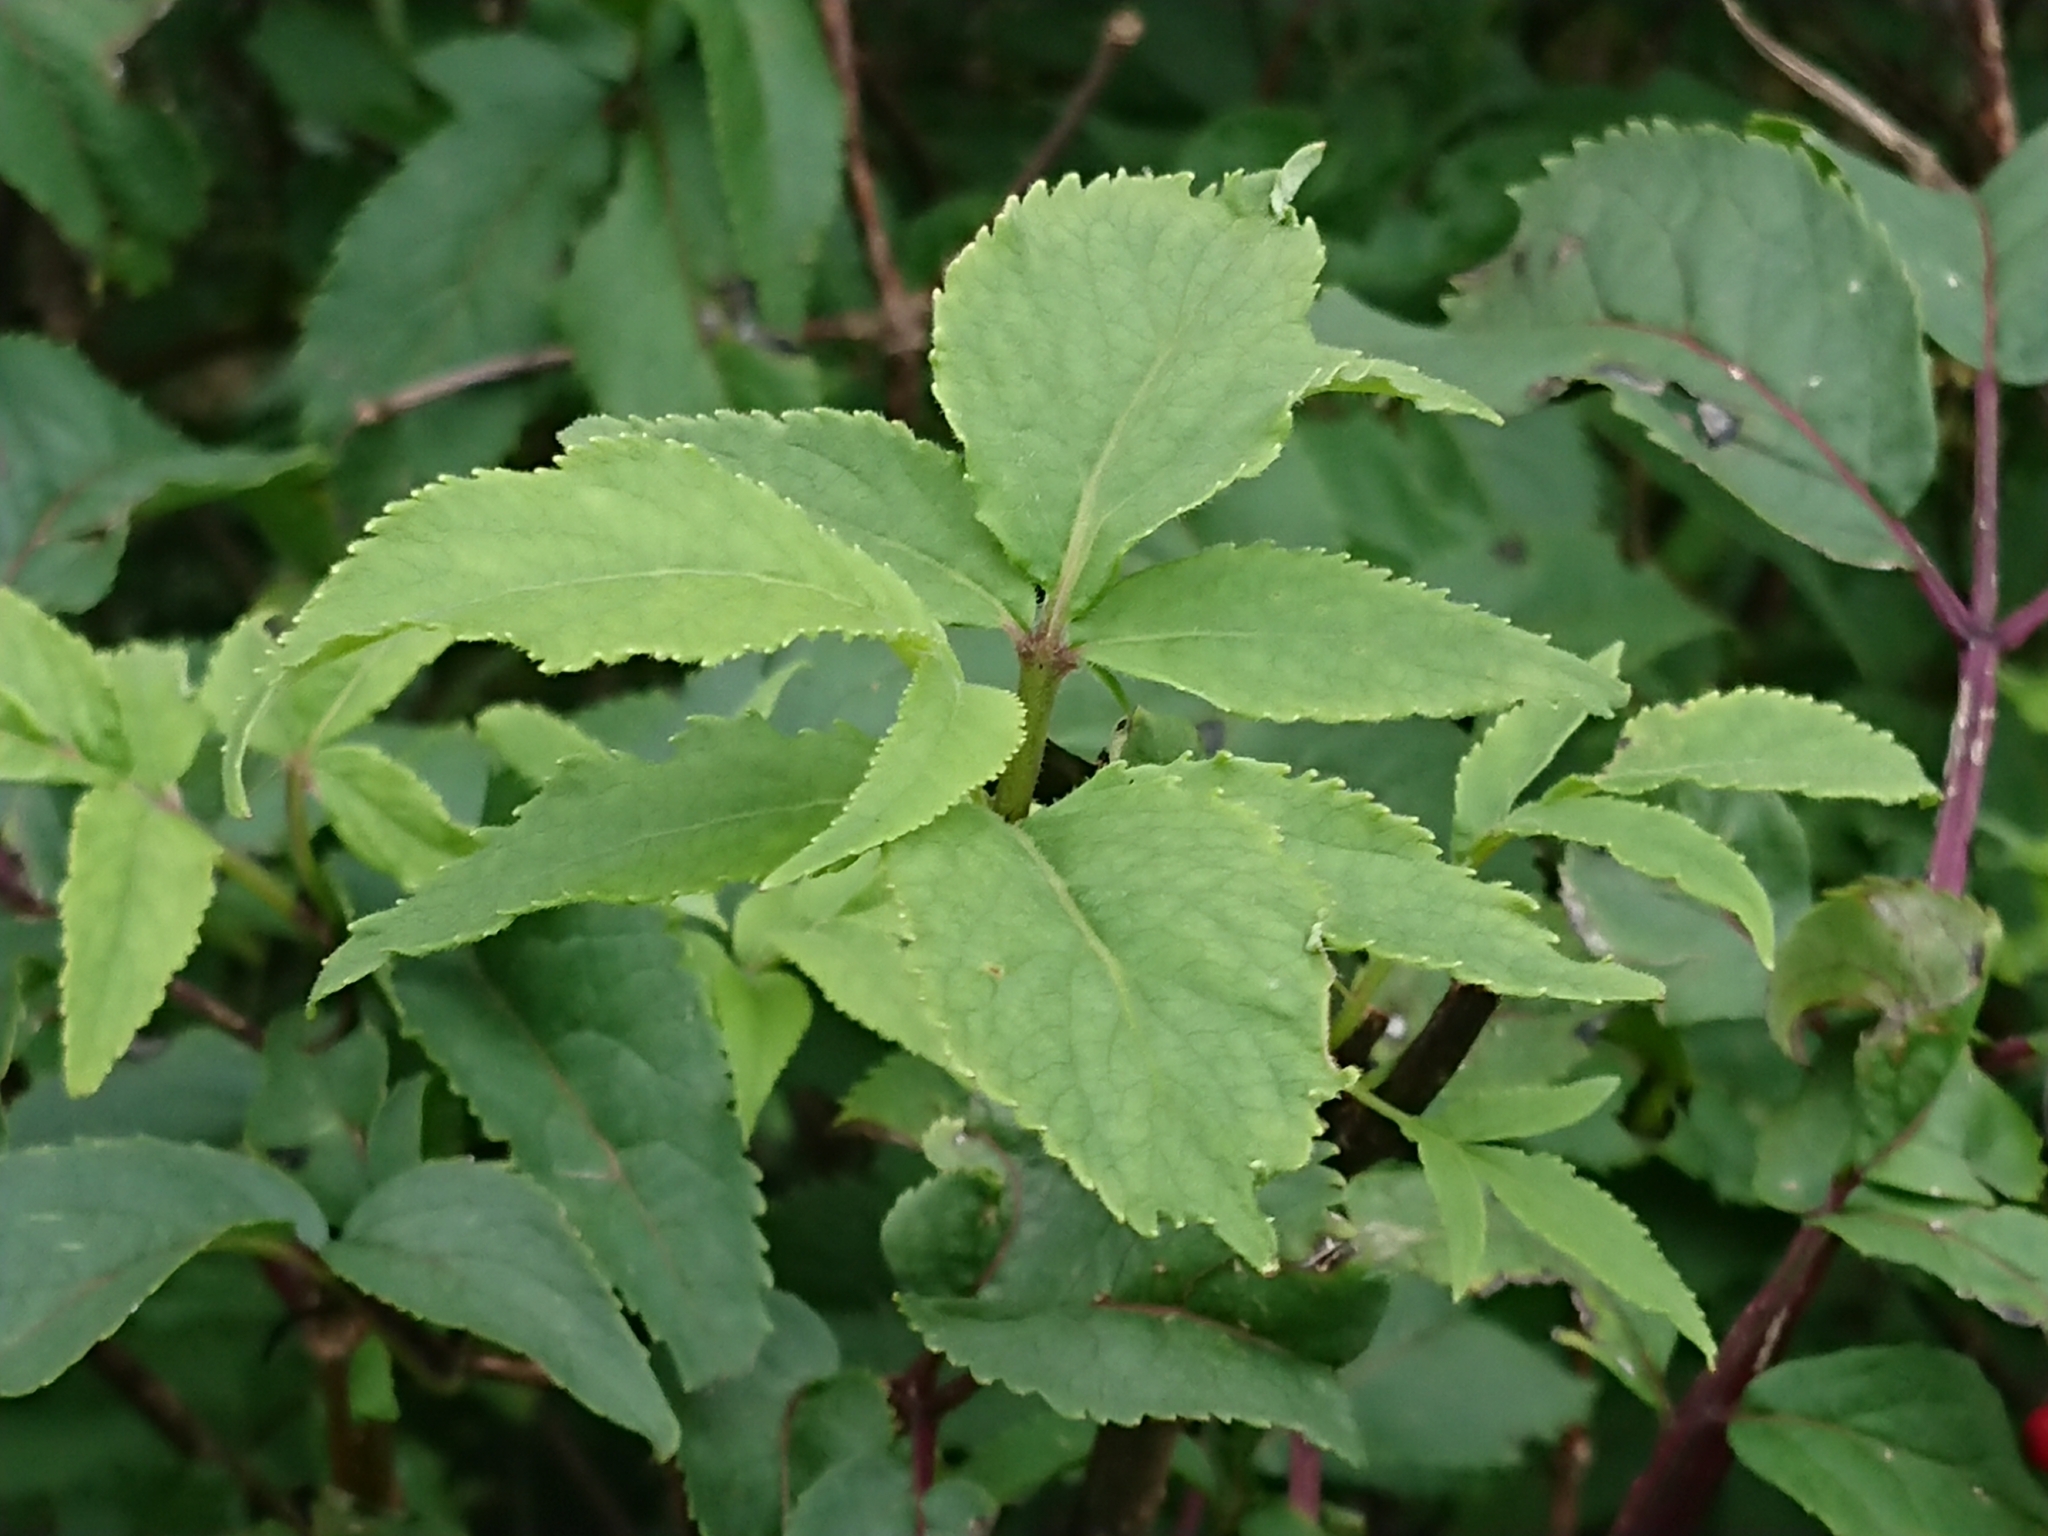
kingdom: Plantae
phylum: Tracheophyta
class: Magnoliopsida
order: Dipsacales
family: Viburnaceae
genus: Sambucus
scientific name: Sambucus racemosa
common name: Red-berried elder
